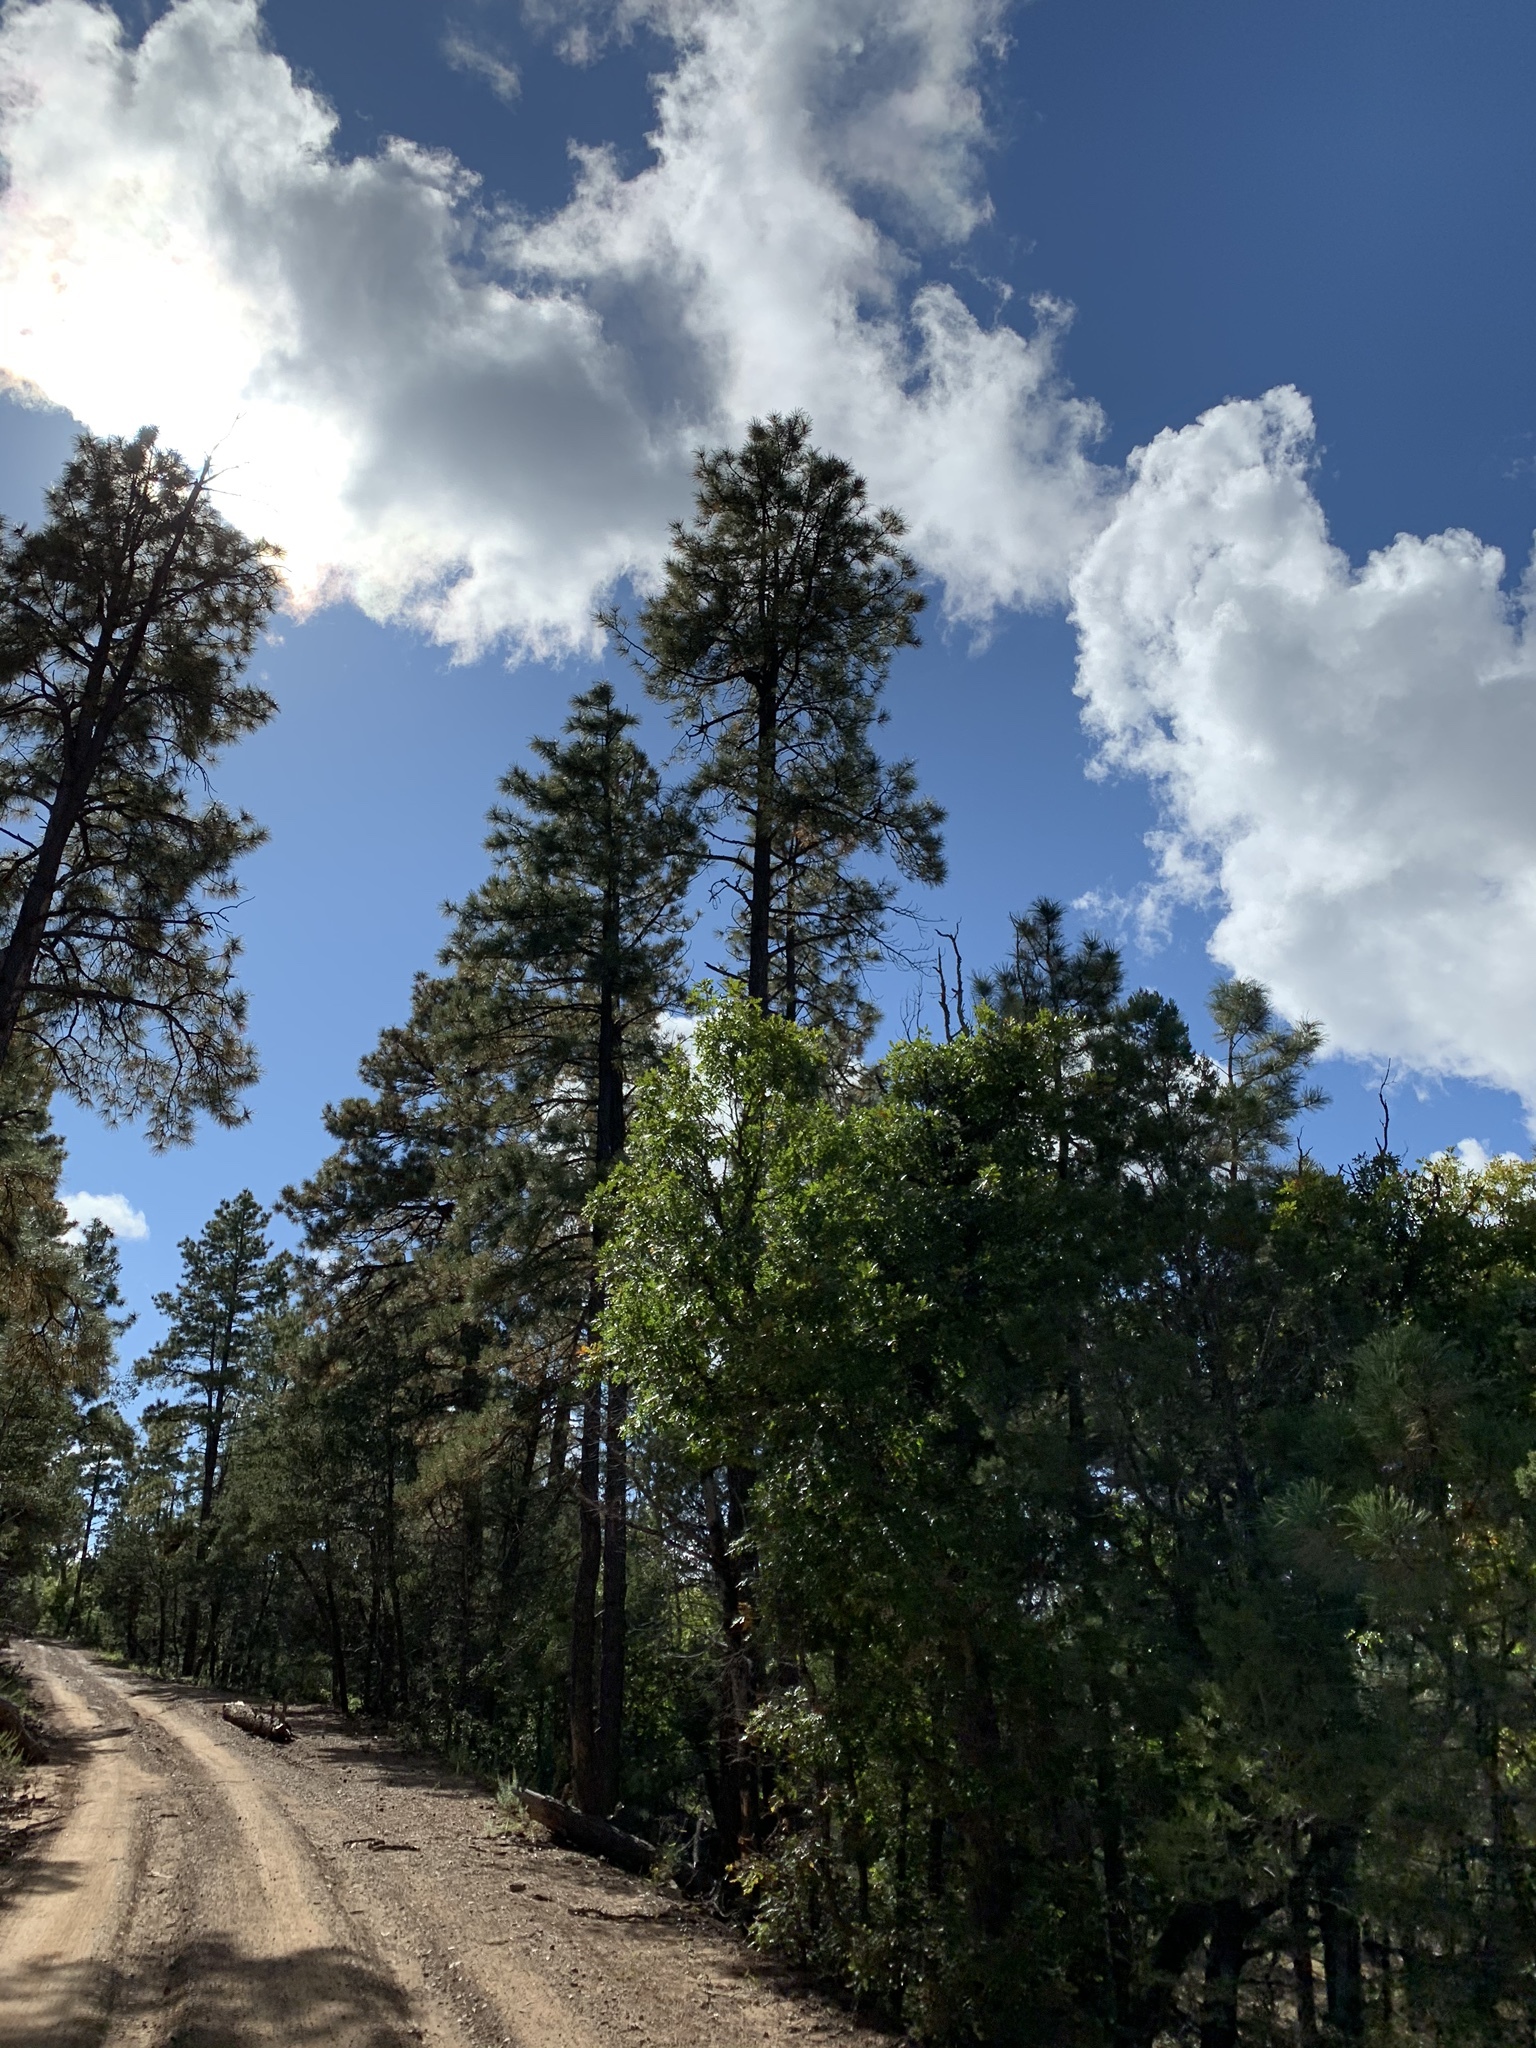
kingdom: Plantae
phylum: Tracheophyta
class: Pinopsida
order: Pinales
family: Pinaceae
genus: Pinus
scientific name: Pinus ponderosa
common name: Western yellow-pine
